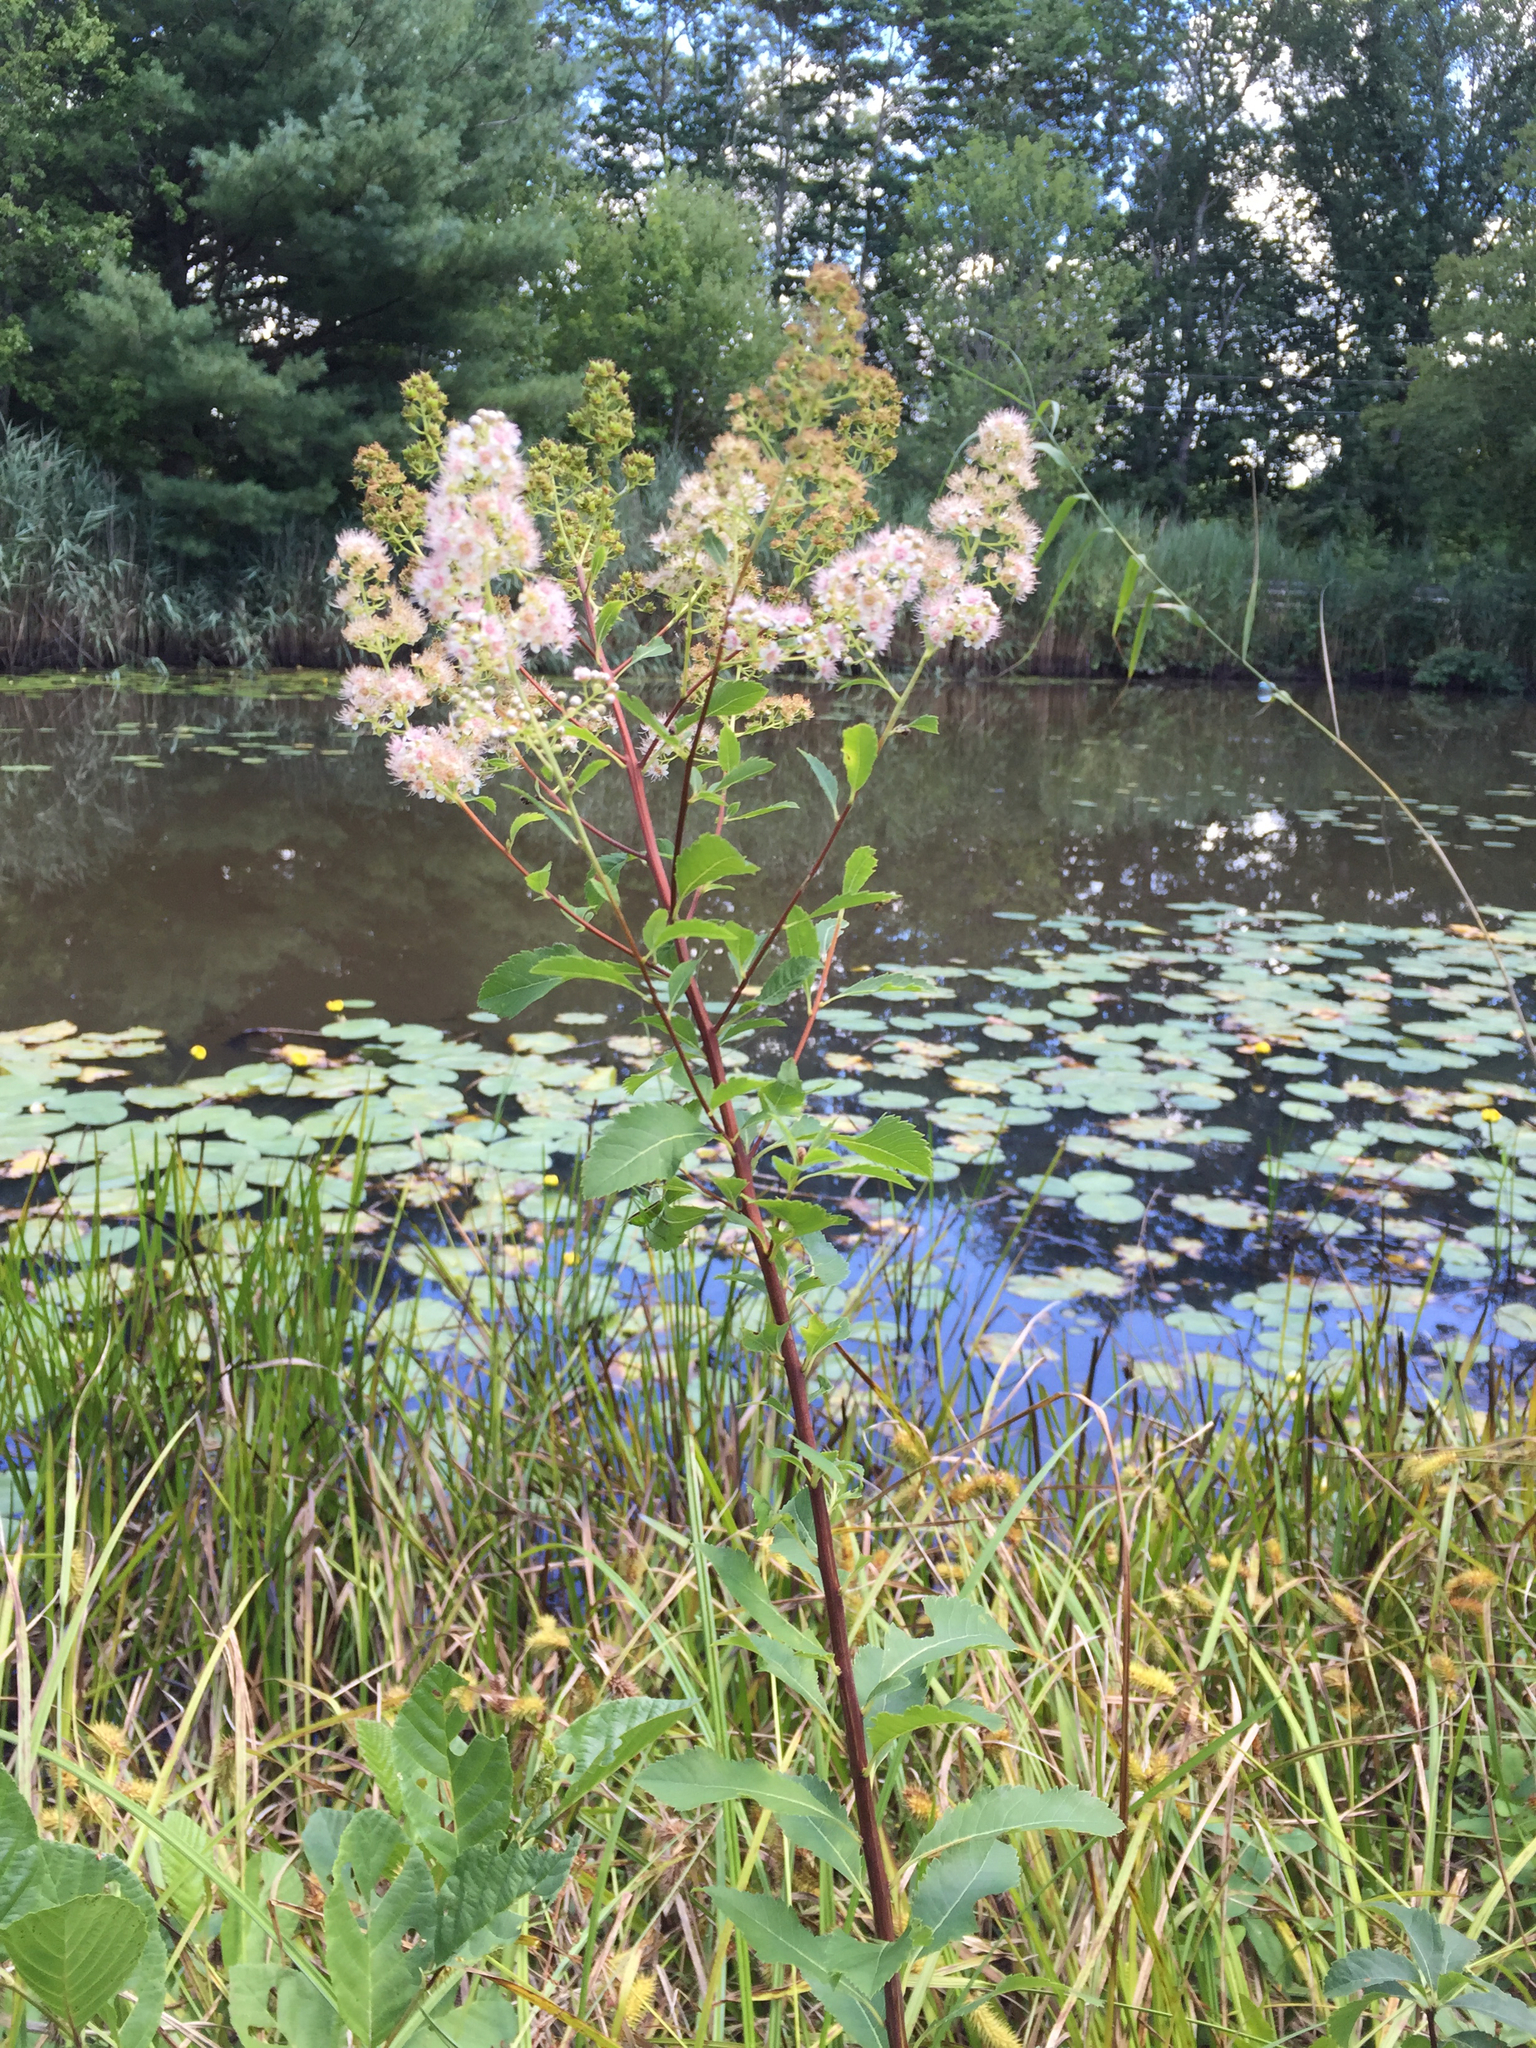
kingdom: Plantae
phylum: Tracheophyta
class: Magnoliopsida
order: Rosales
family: Rosaceae
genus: Spiraea
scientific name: Spiraea alba
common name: Pale bridewort
